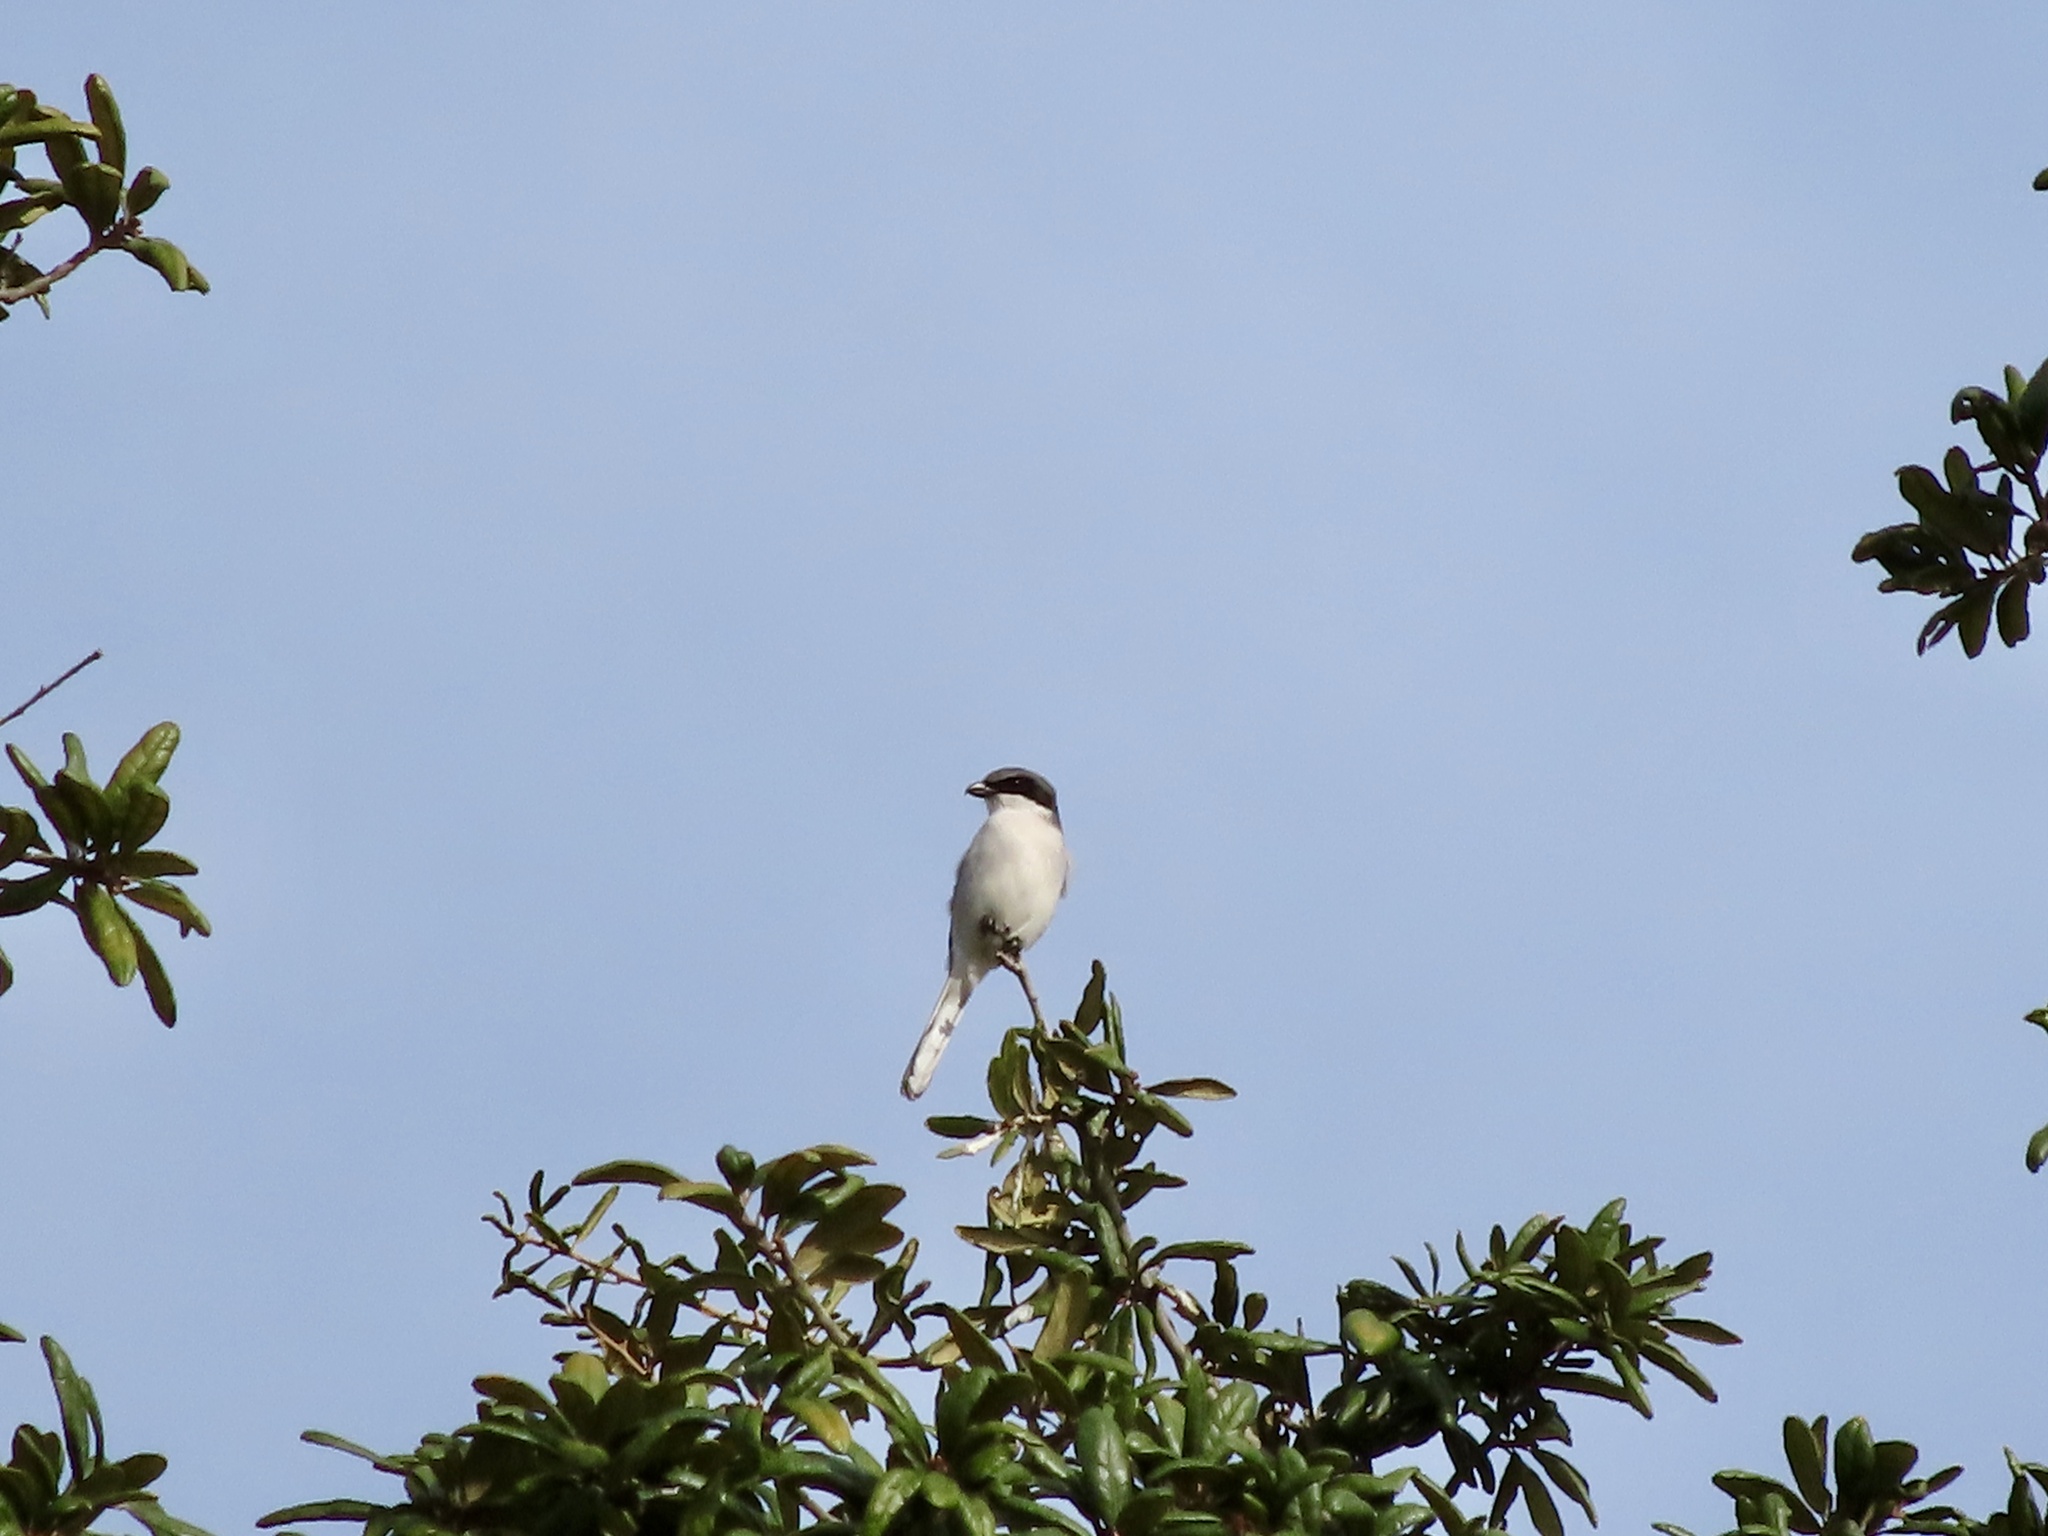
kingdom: Animalia
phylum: Chordata
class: Aves
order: Passeriformes
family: Laniidae
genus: Lanius
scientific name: Lanius ludovicianus
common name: Loggerhead shrike
